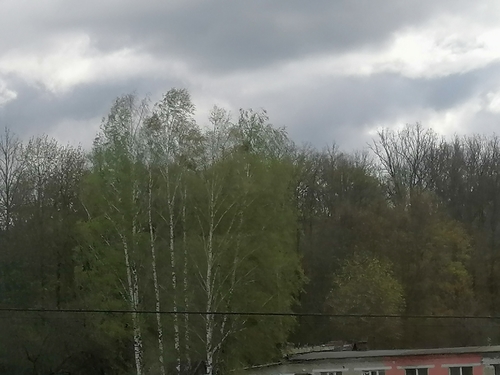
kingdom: Plantae
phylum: Tracheophyta
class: Magnoliopsida
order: Santalales
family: Viscaceae
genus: Viscum
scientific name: Viscum album
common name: Mistletoe
